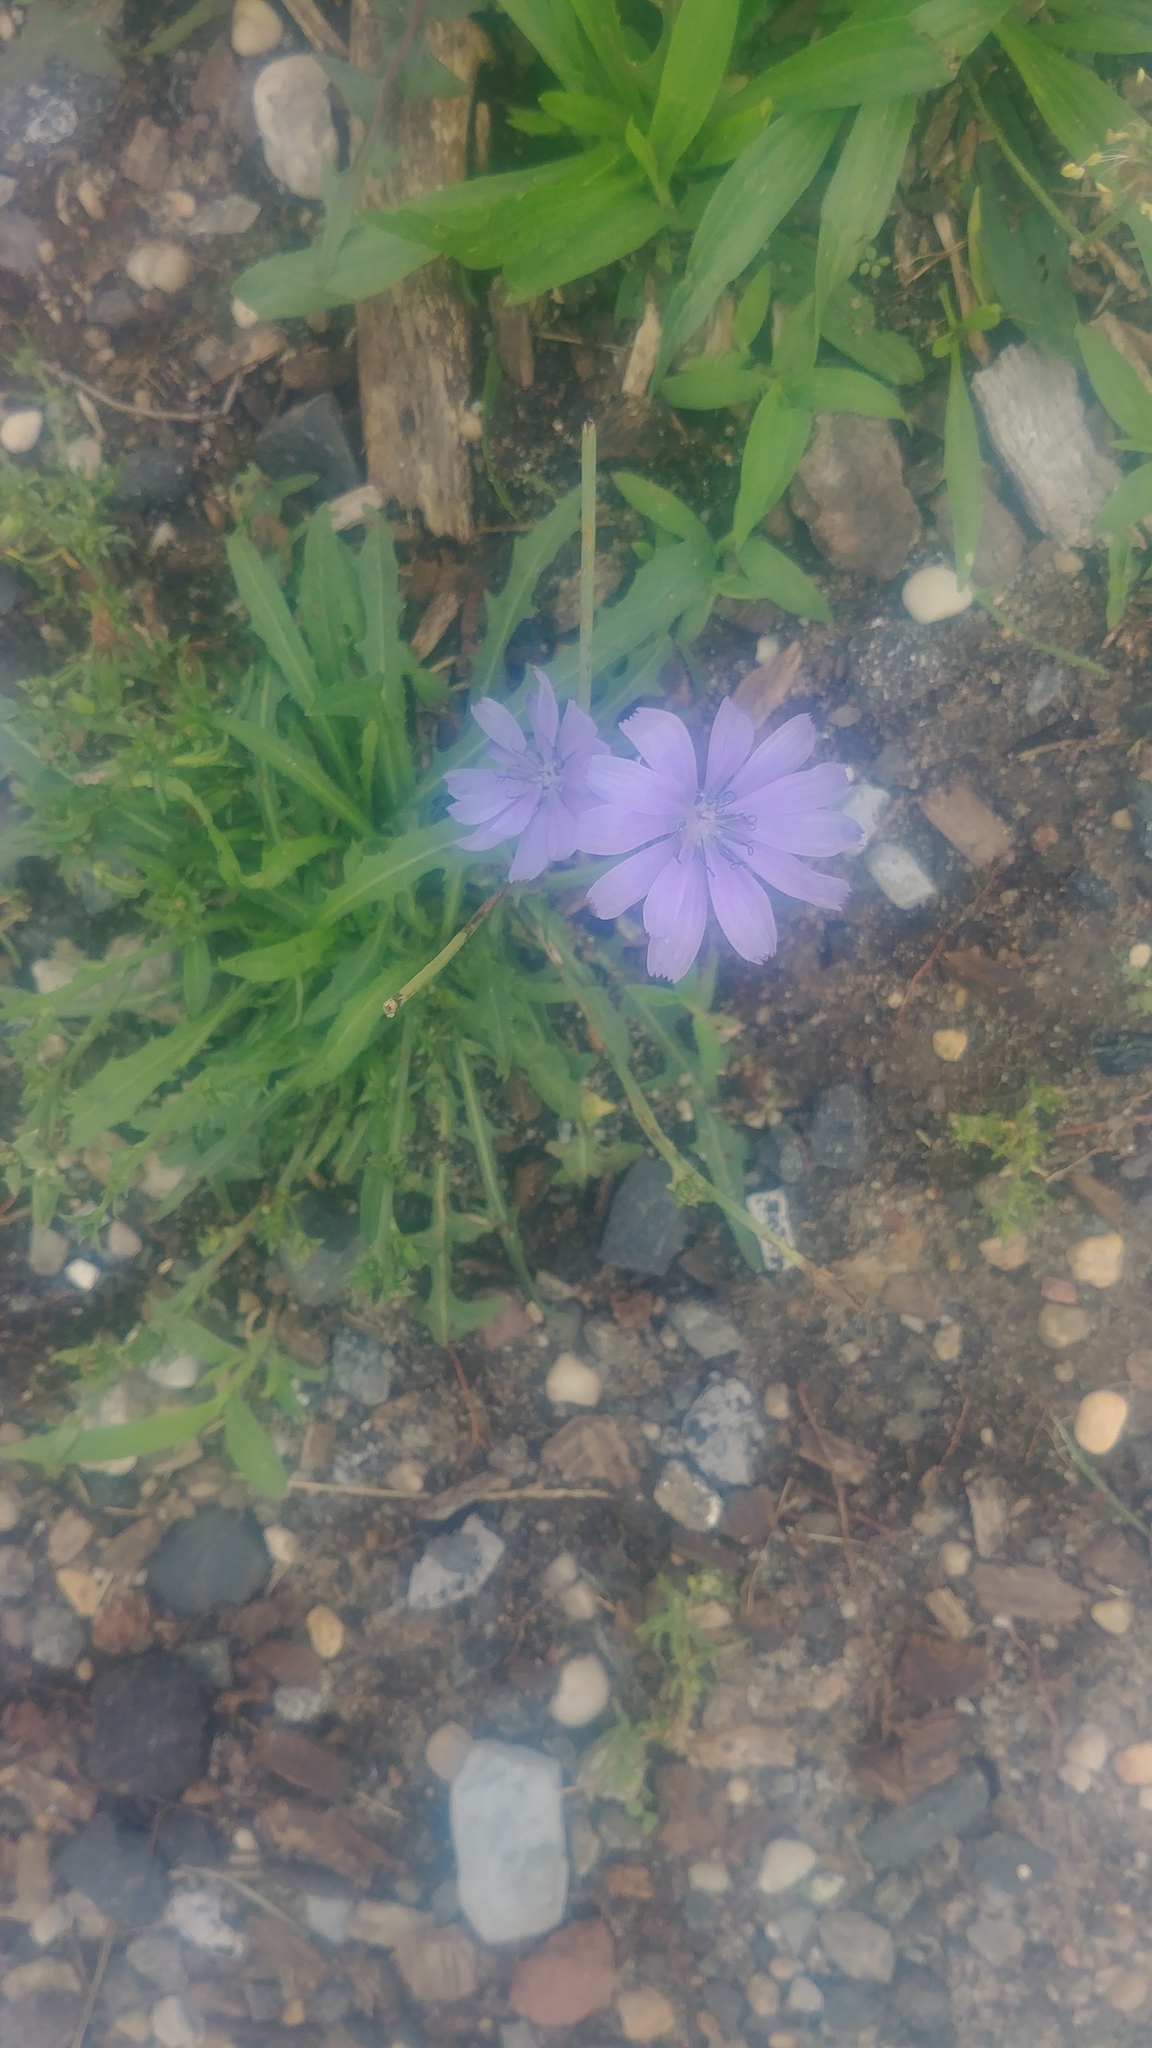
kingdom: Plantae
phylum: Tracheophyta
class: Magnoliopsida
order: Asterales
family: Asteraceae
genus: Cichorium
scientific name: Cichorium intybus
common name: Chicory
